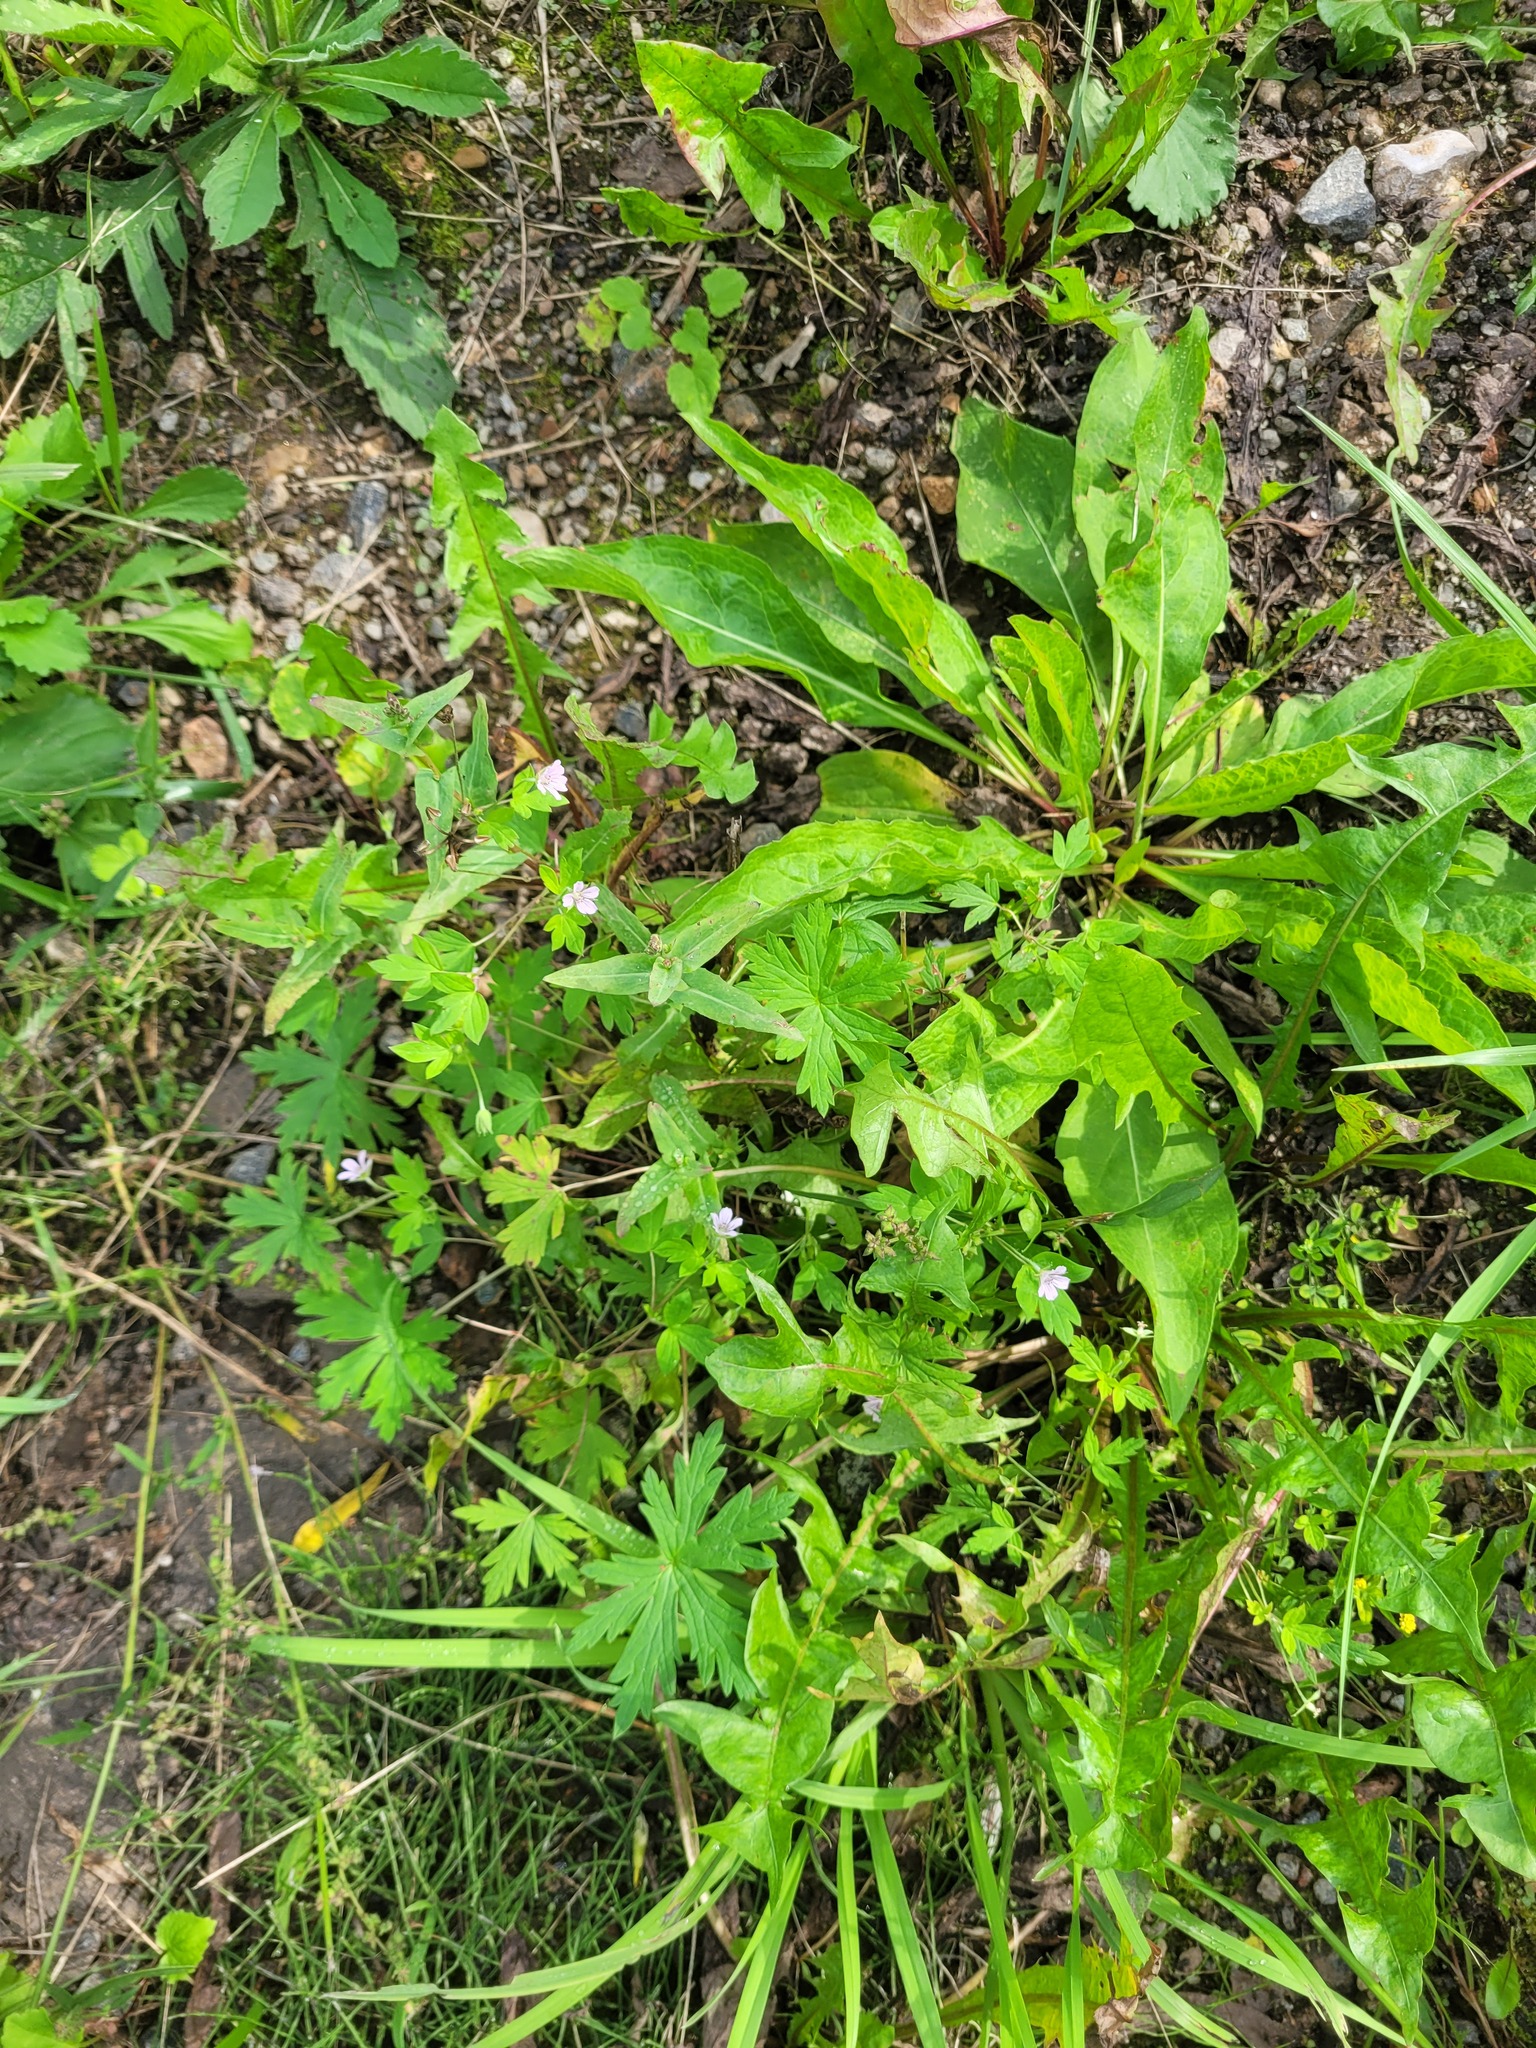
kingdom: Plantae
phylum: Tracheophyta
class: Magnoliopsida
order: Geraniales
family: Geraniaceae
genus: Geranium
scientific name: Geranium sibiricum
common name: Siberian crane's-bill
